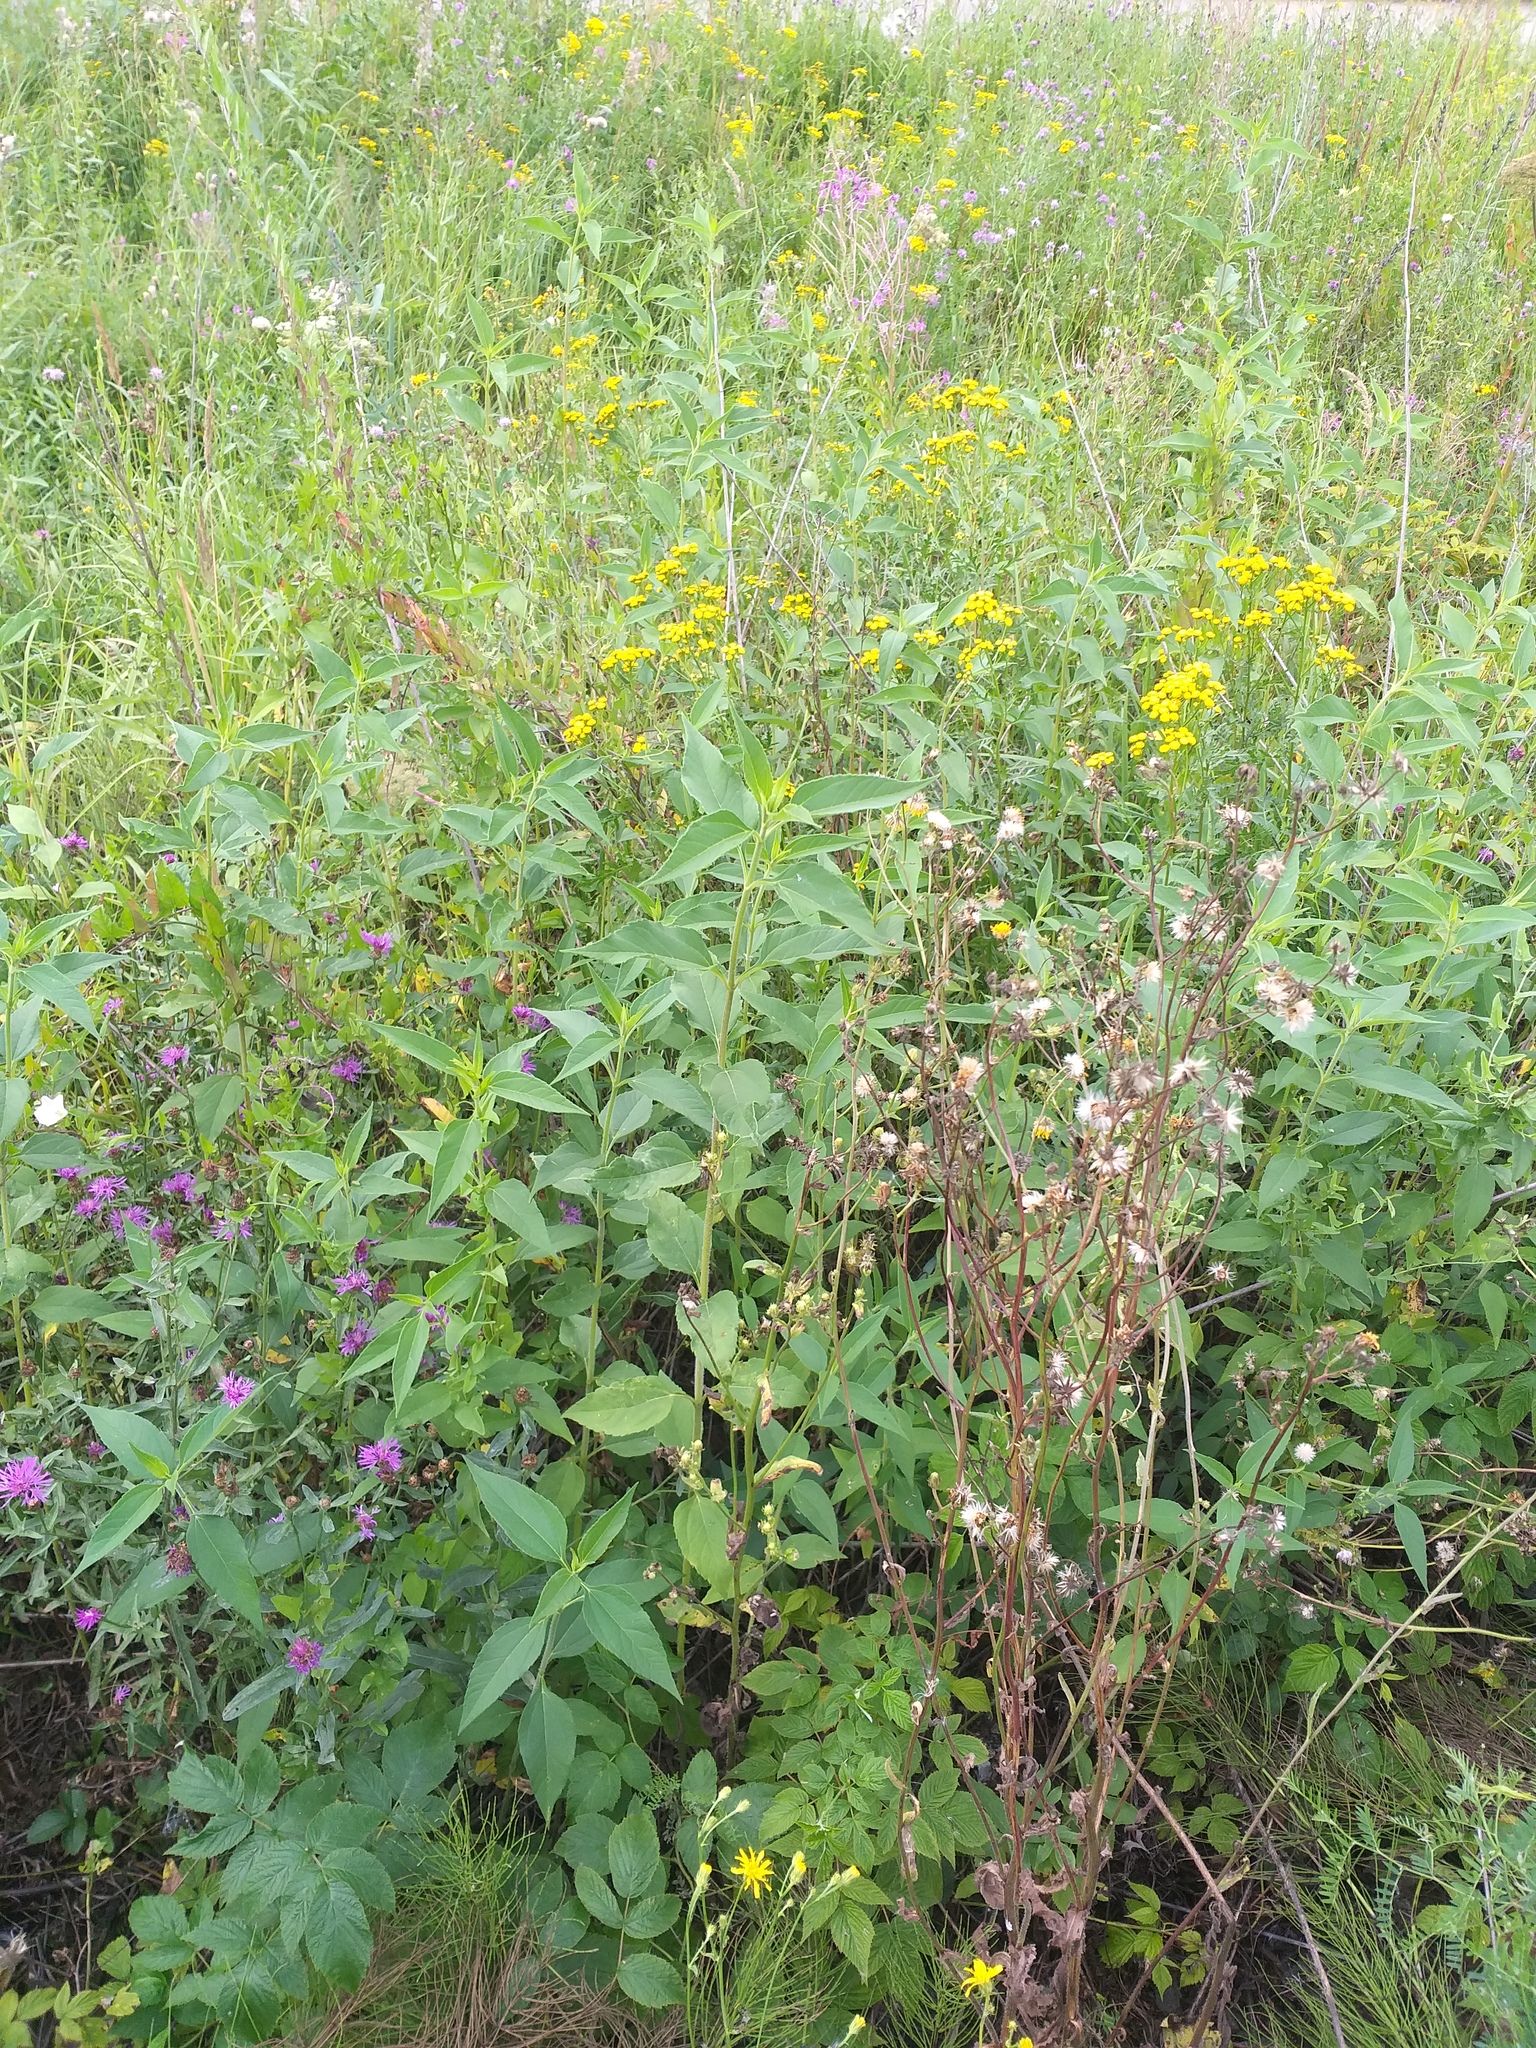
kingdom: Plantae
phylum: Tracheophyta
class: Magnoliopsida
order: Asterales
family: Asteraceae
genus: Helianthus
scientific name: Helianthus tuberosus
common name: Jerusalem artichoke
